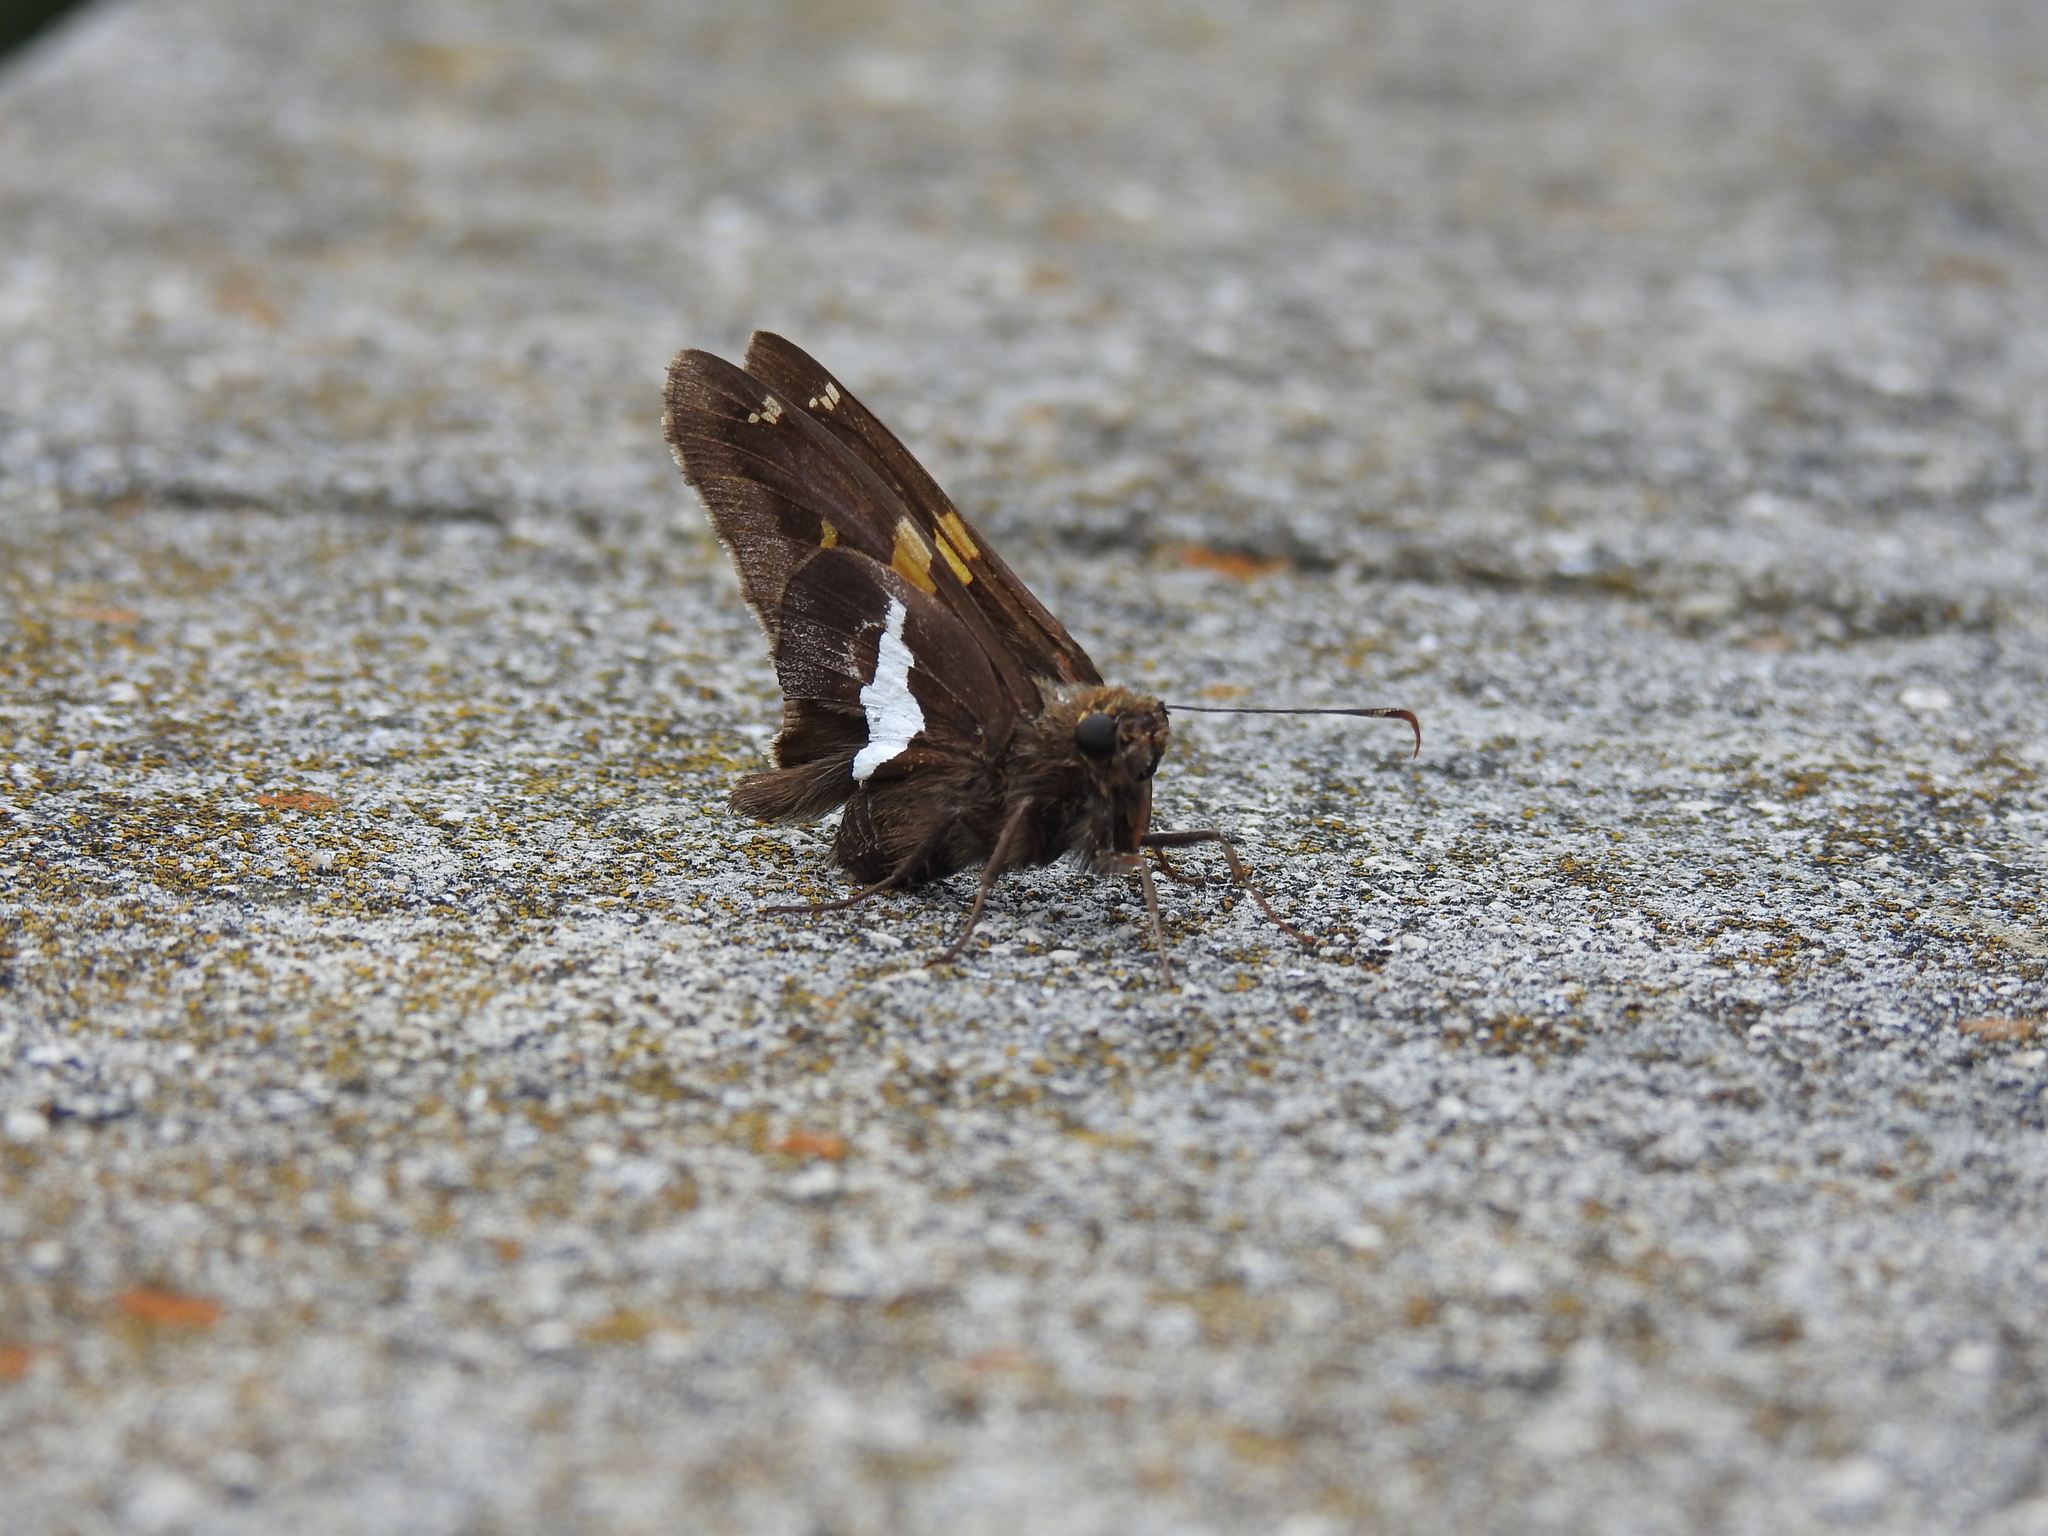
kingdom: Animalia
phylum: Arthropoda
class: Insecta
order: Lepidoptera
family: Hesperiidae
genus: Epargyreus
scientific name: Epargyreus clarus
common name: Silver-spotted skipper
